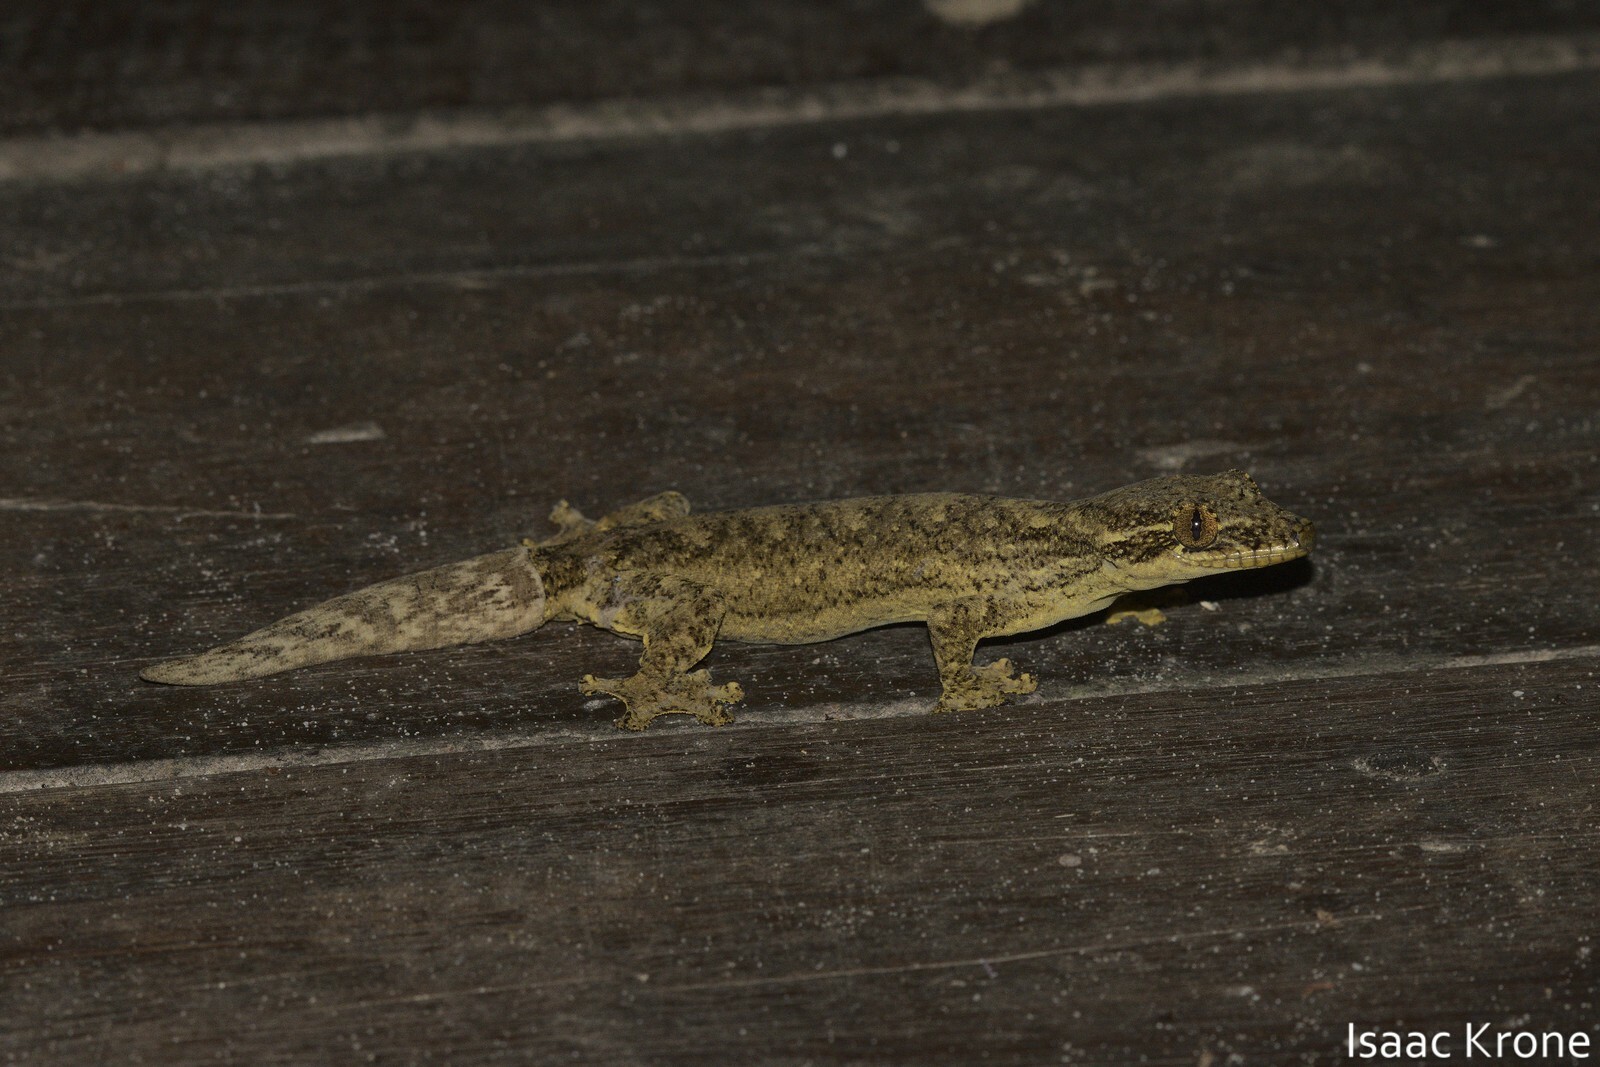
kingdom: Animalia
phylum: Chordata
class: Squamata
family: Phyllodactylidae
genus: Thecadactylus
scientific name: Thecadactylus solimoensis
